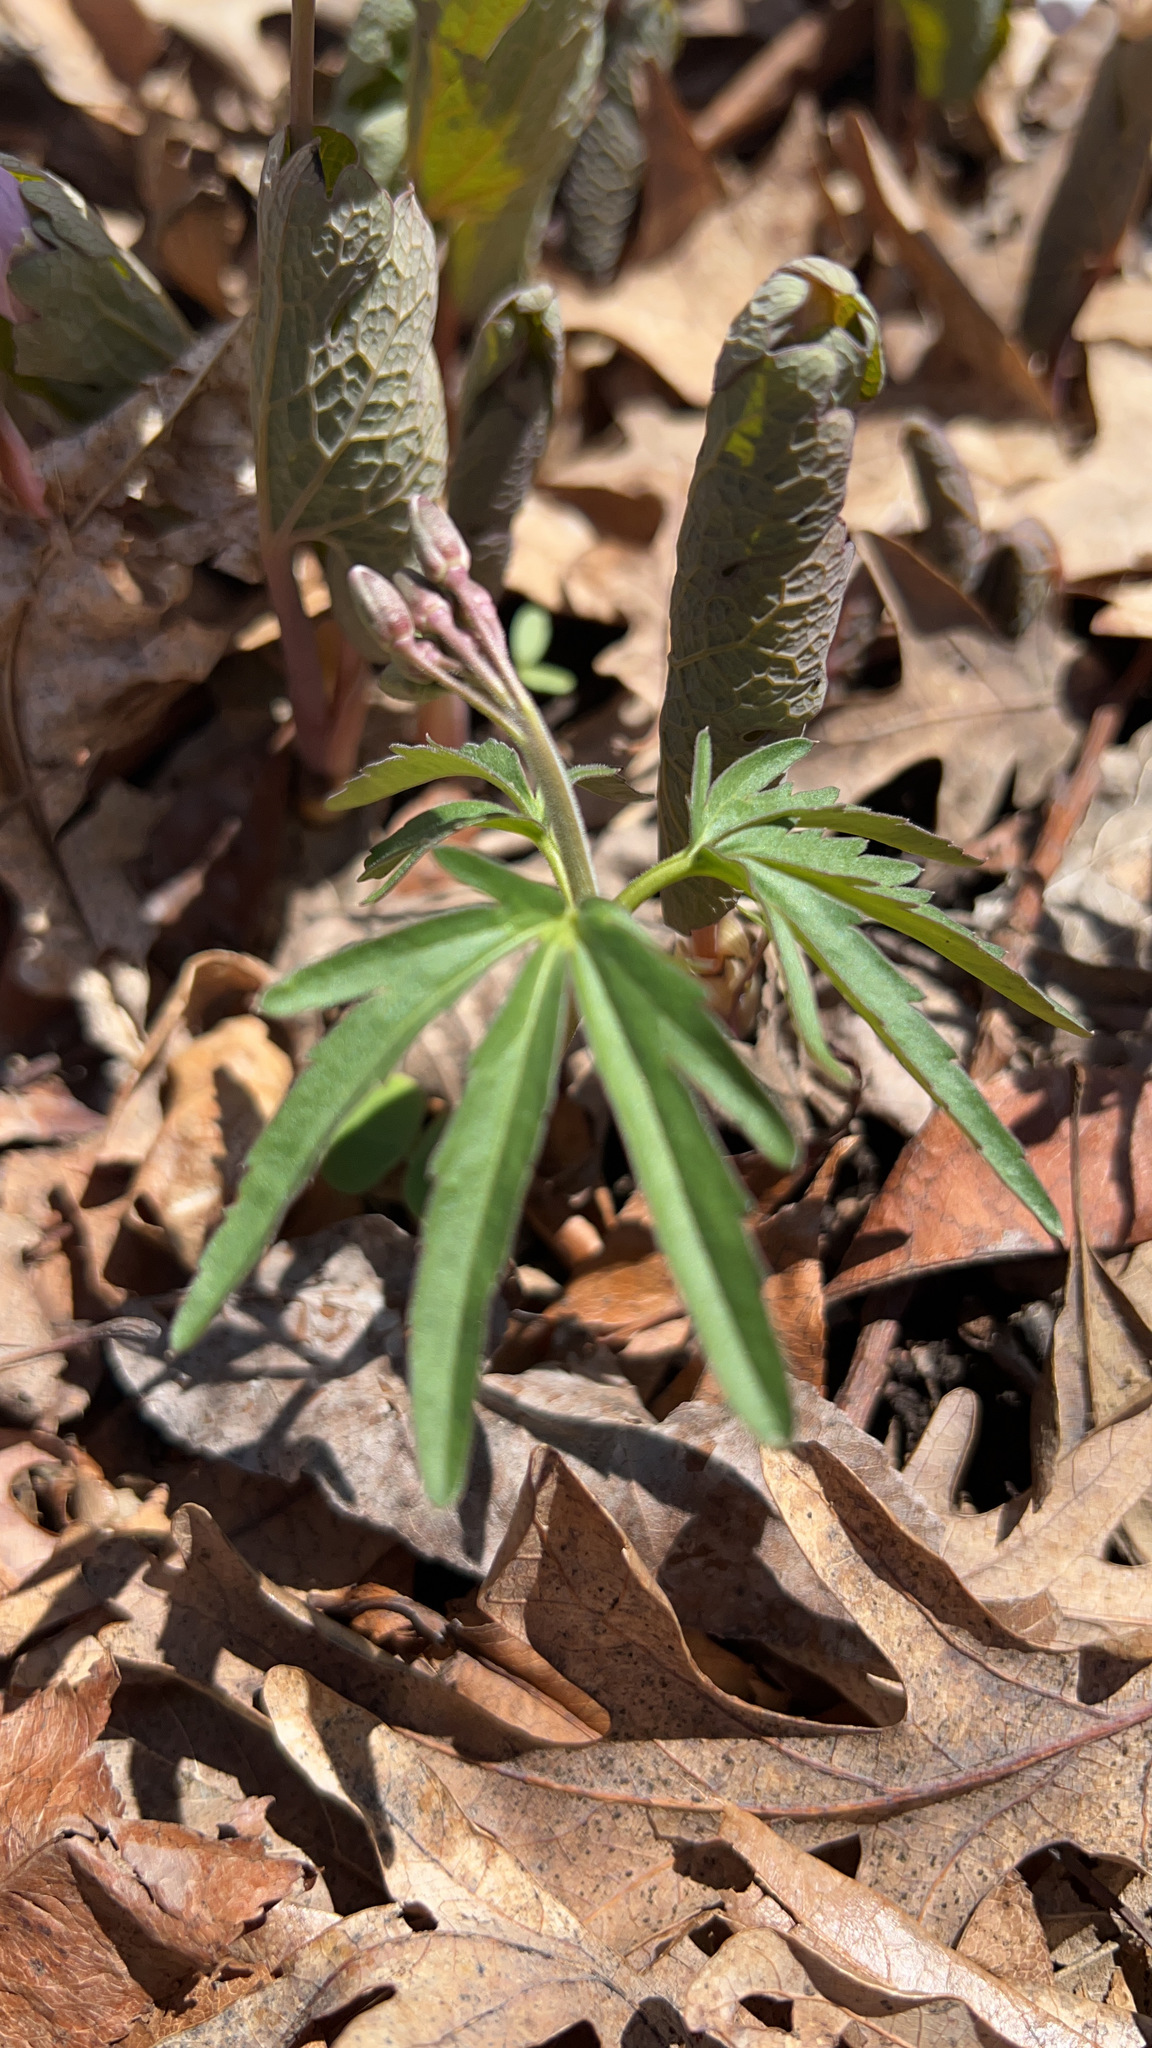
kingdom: Plantae
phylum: Tracheophyta
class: Magnoliopsida
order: Brassicales
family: Brassicaceae
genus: Cardamine
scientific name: Cardamine concatenata
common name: Cut-leaf toothcup
